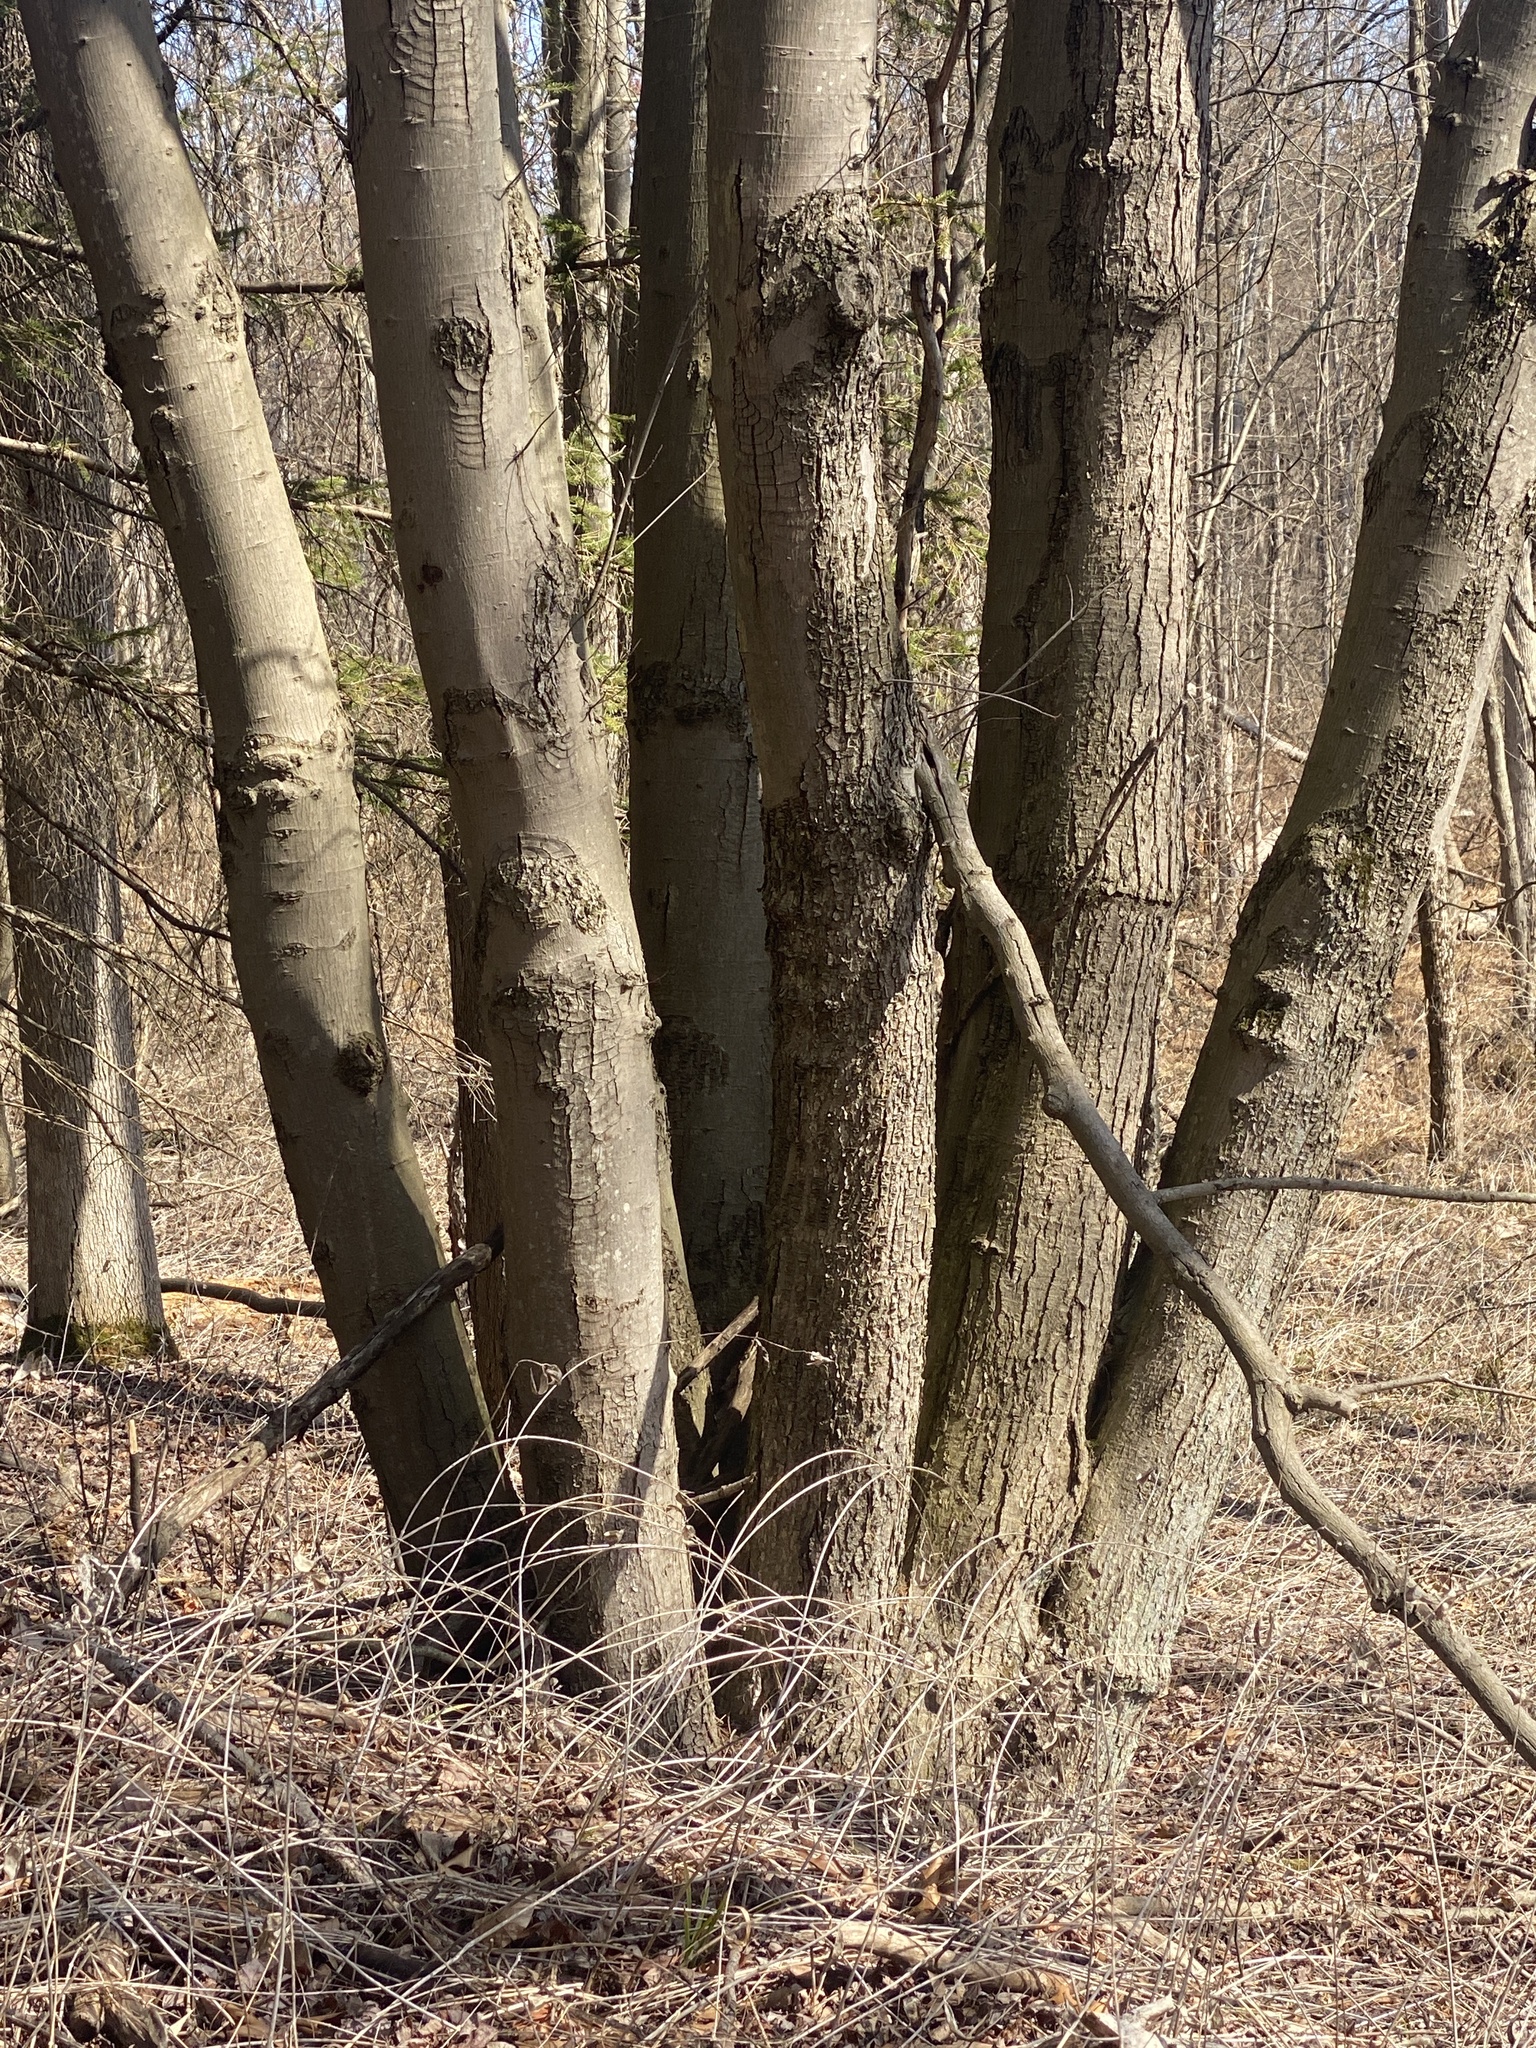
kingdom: Plantae
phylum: Tracheophyta
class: Magnoliopsida
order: Sapindales
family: Sapindaceae
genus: Acer
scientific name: Acer rubrum
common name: Red maple
